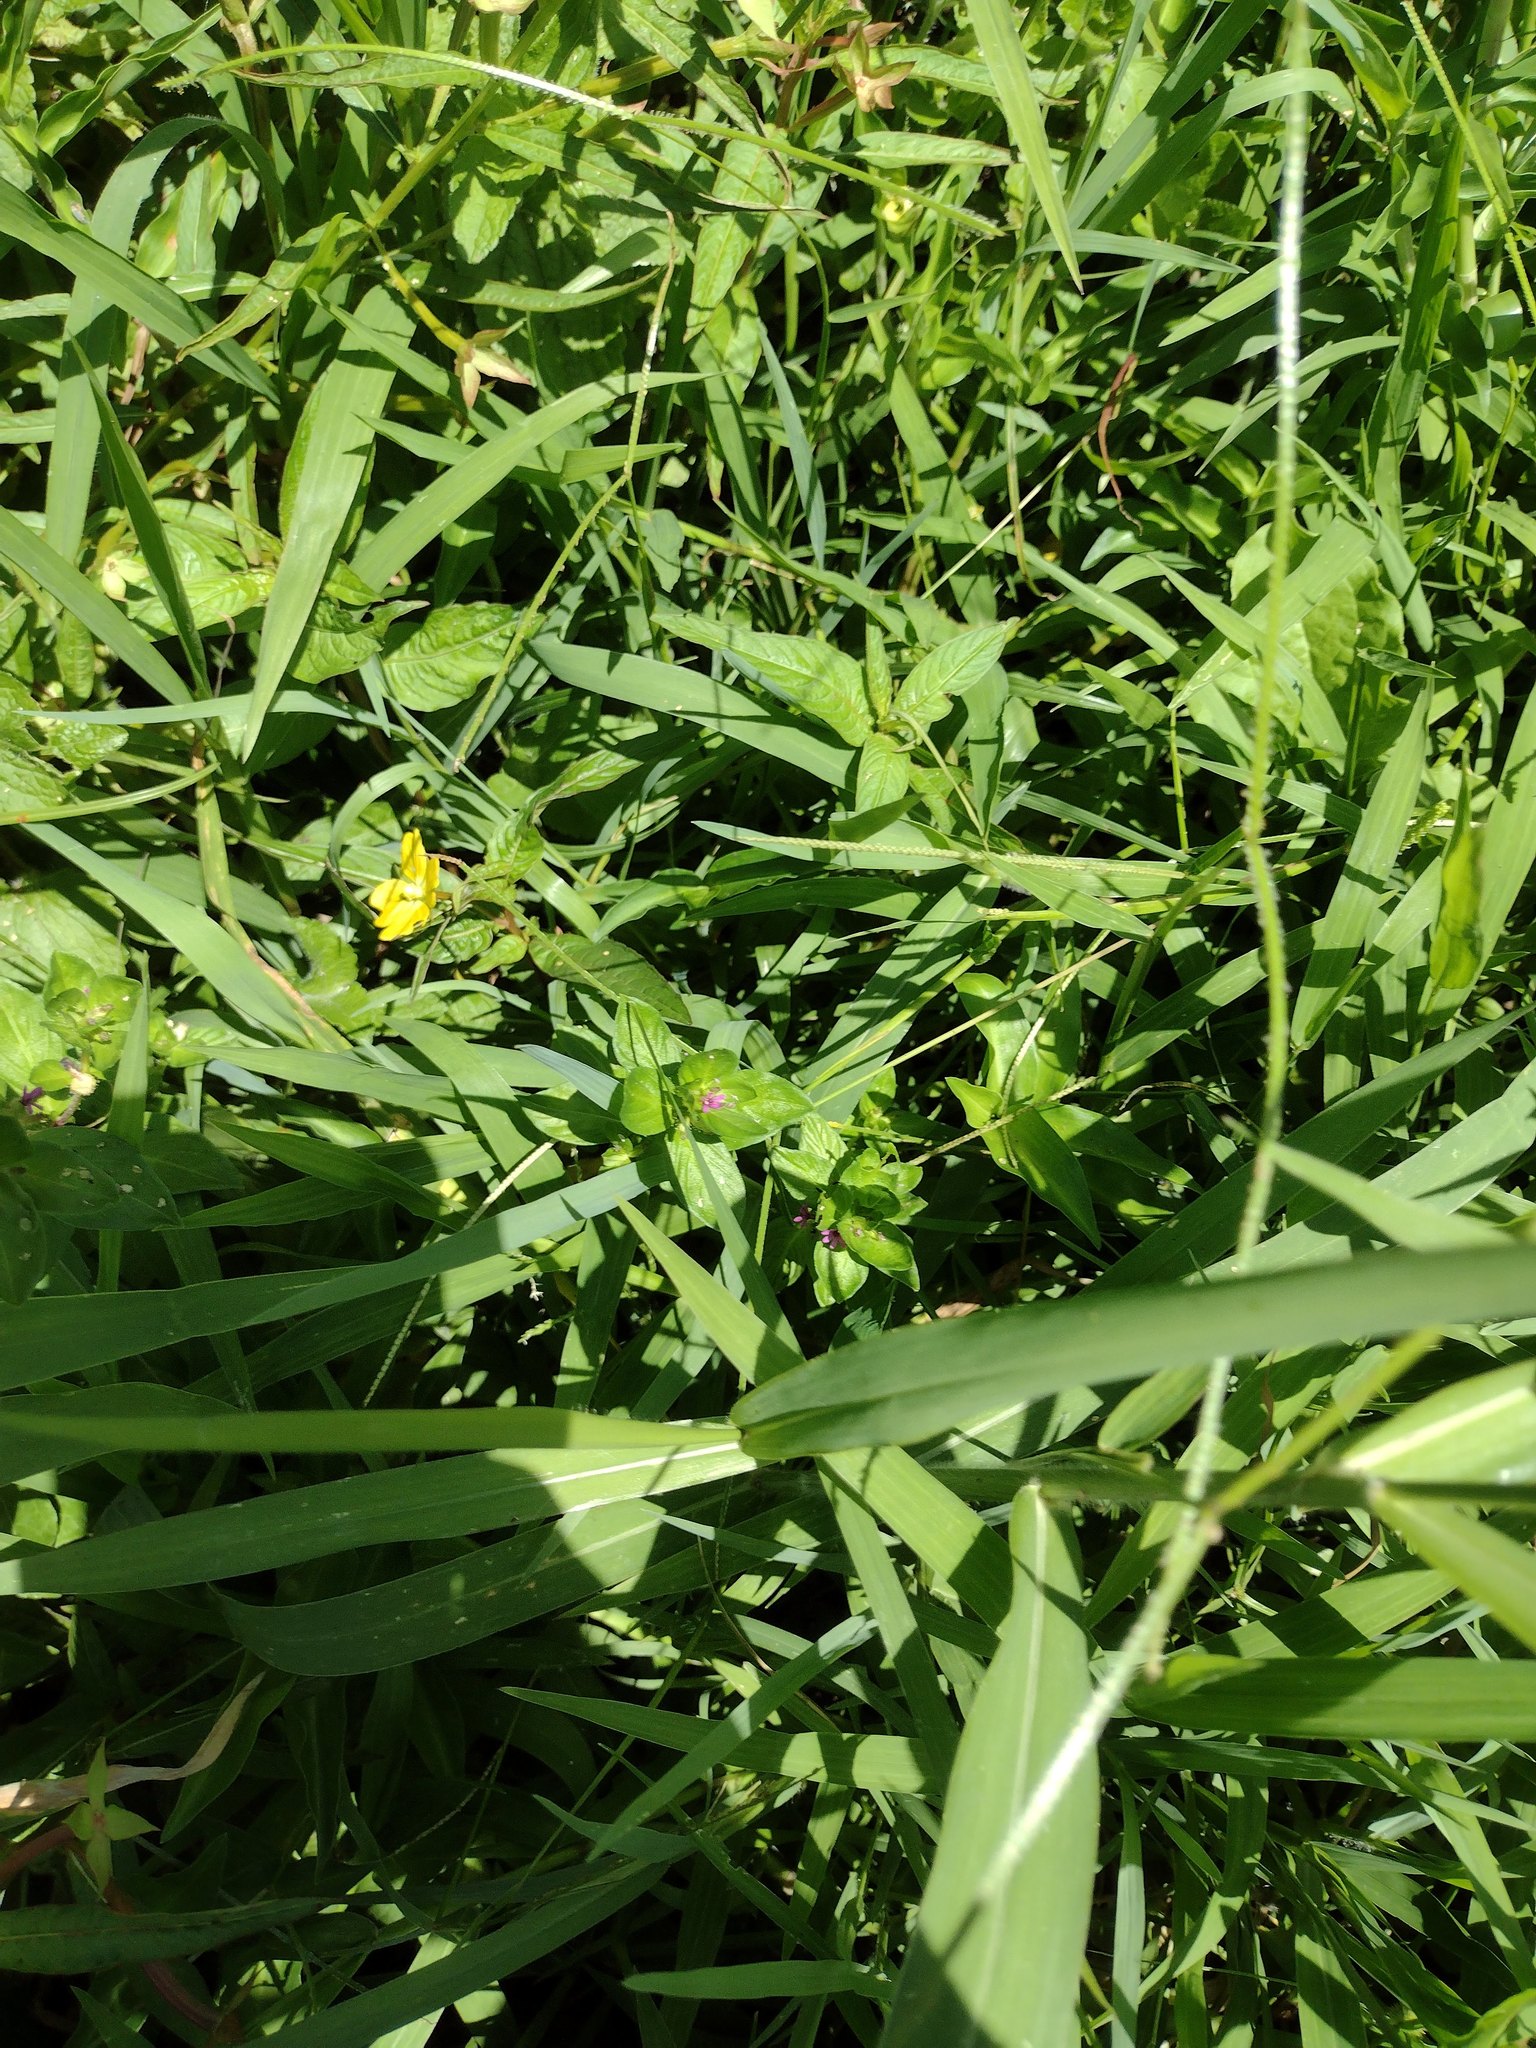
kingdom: Plantae
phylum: Tracheophyta
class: Magnoliopsida
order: Myrtales
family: Onagraceae
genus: Ludwigia
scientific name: Ludwigia octovalvis
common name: Water-primrose
